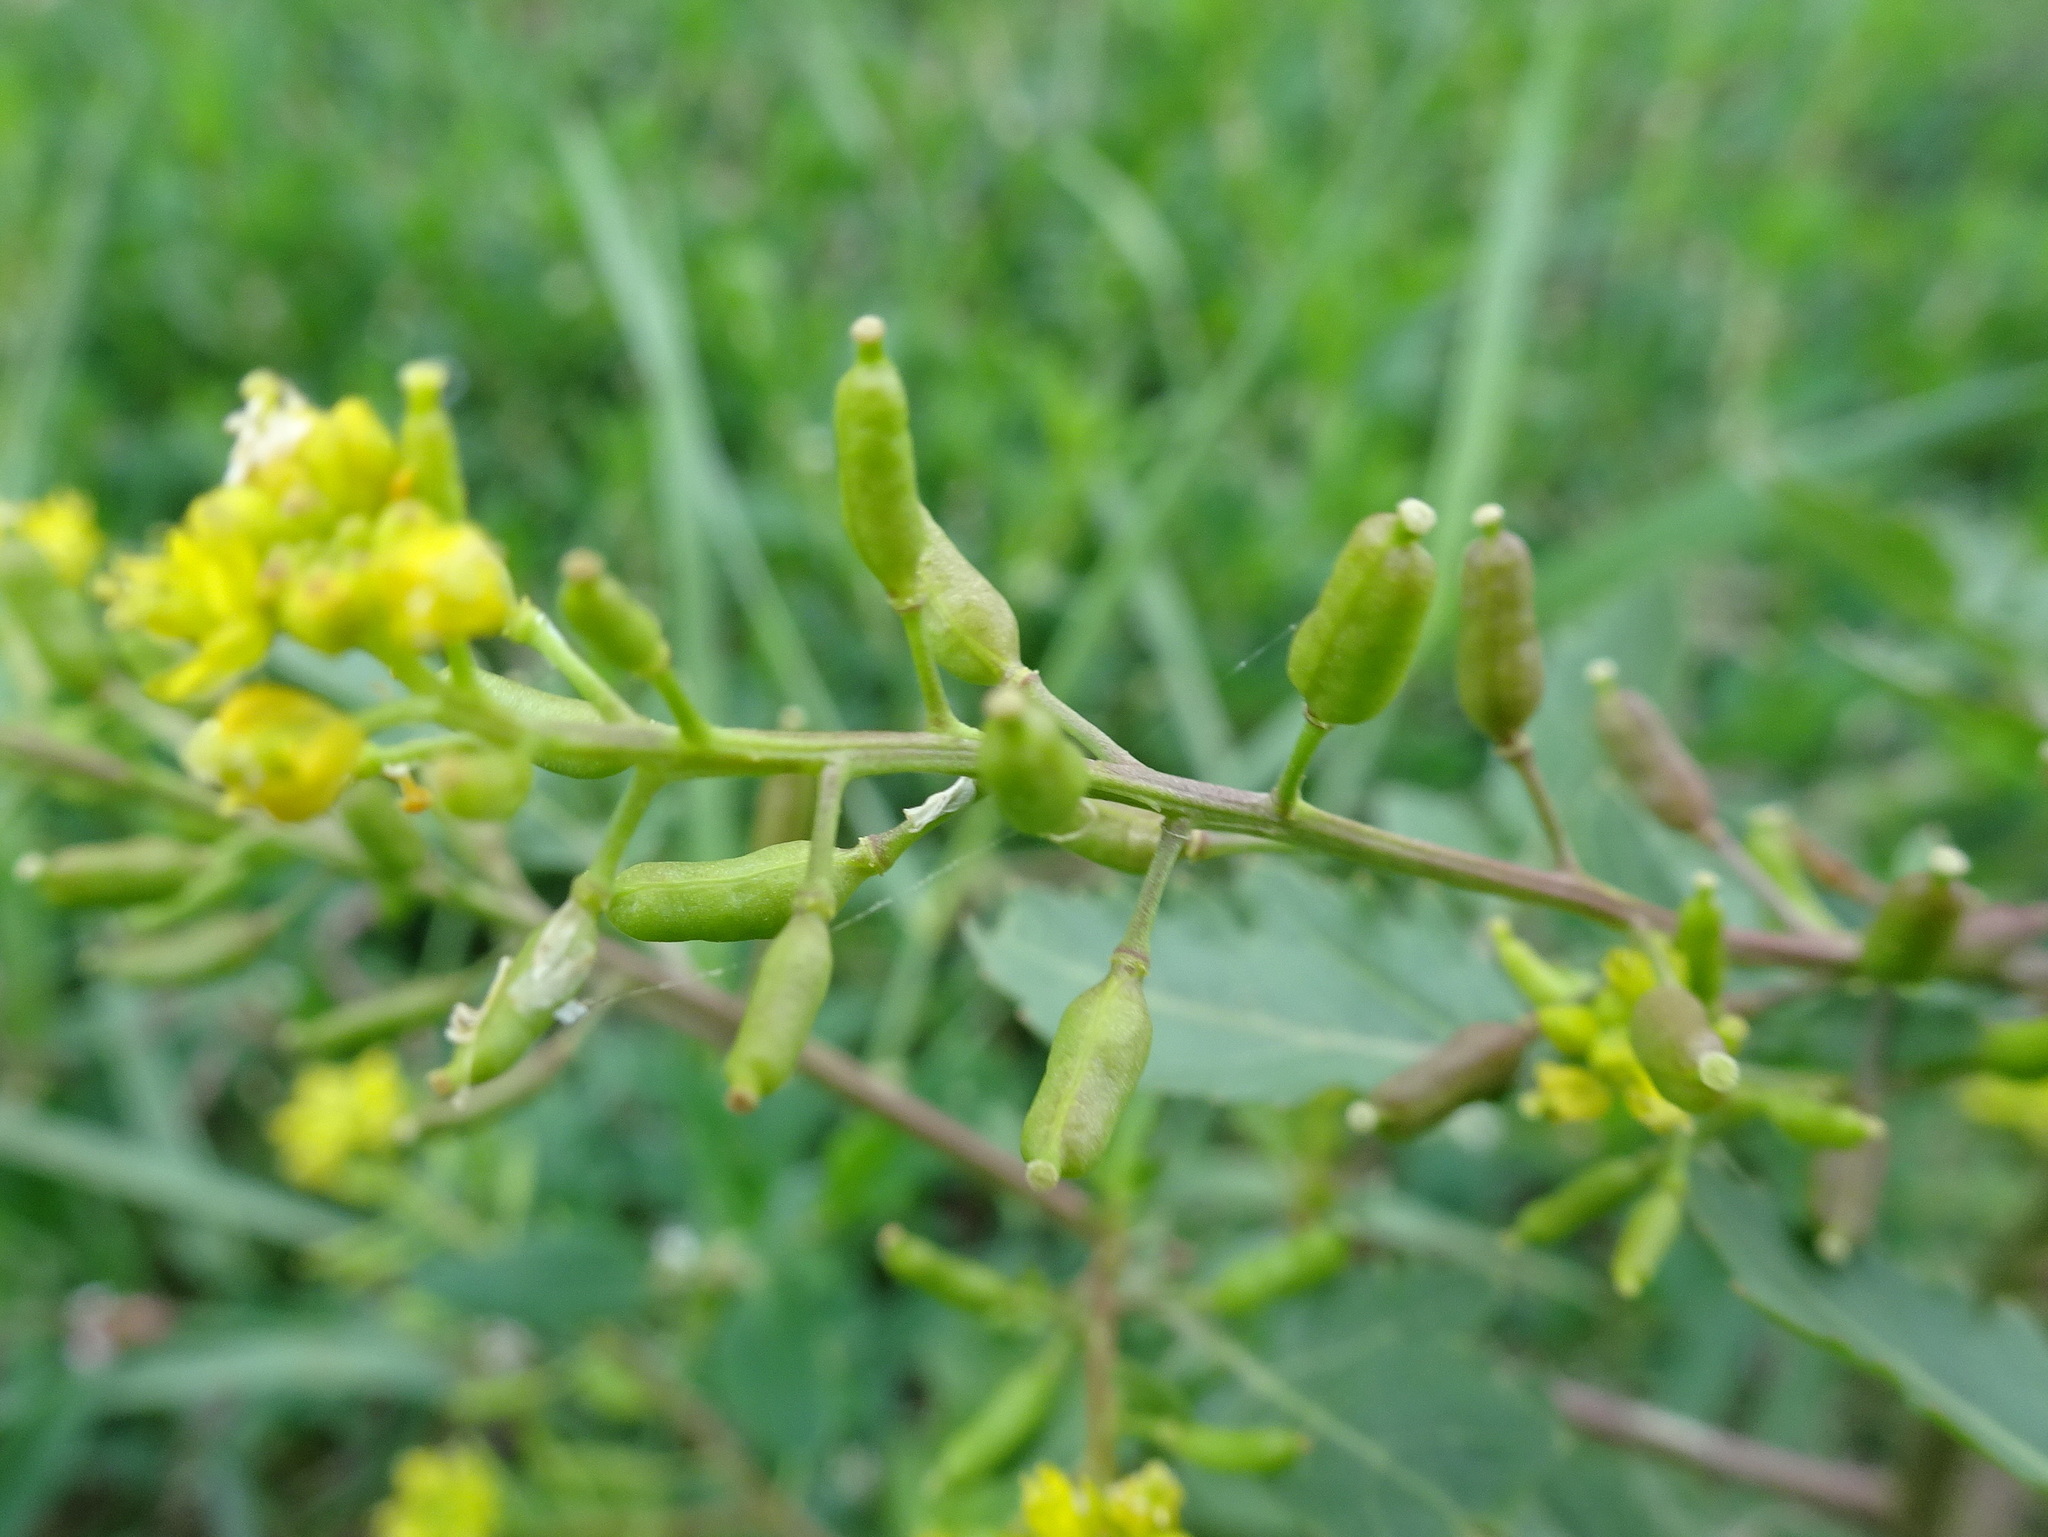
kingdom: Plantae
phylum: Tracheophyta
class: Magnoliopsida
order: Brassicales
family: Brassicaceae
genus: Rorippa
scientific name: Rorippa palustris
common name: Marsh yellow-cress
